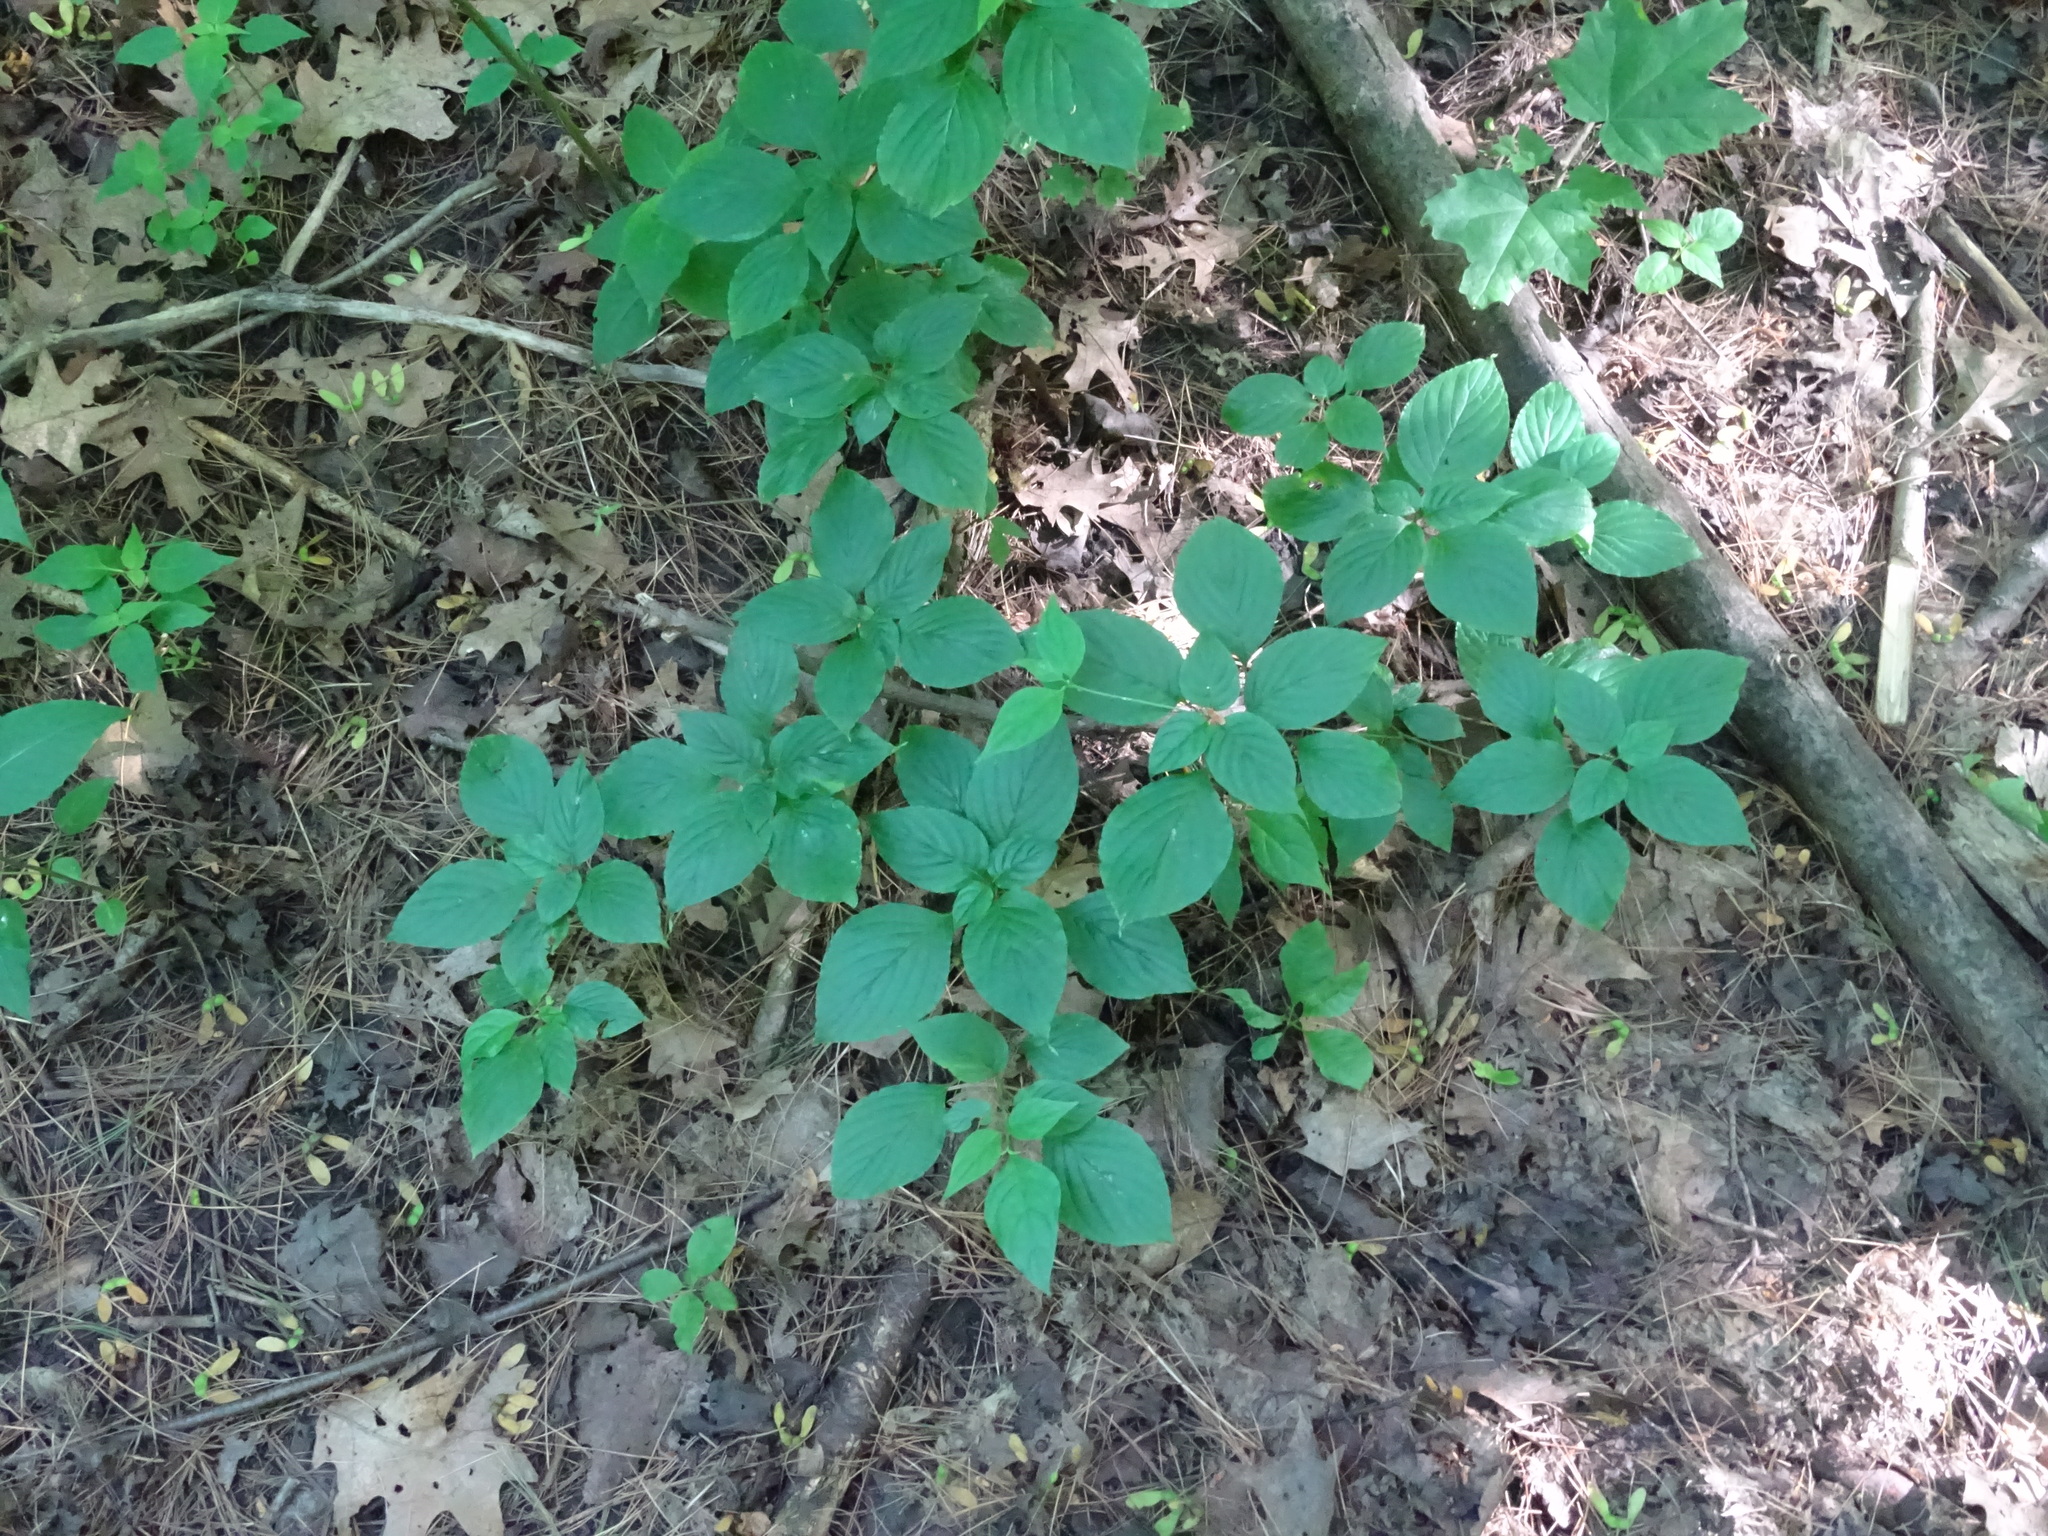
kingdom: Plantae
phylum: Tracheophyta
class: Magnoliopsida
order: Cornales
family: Cornaceae
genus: Cornus
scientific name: Cornus alternifolia
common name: Pagoda dogwood
